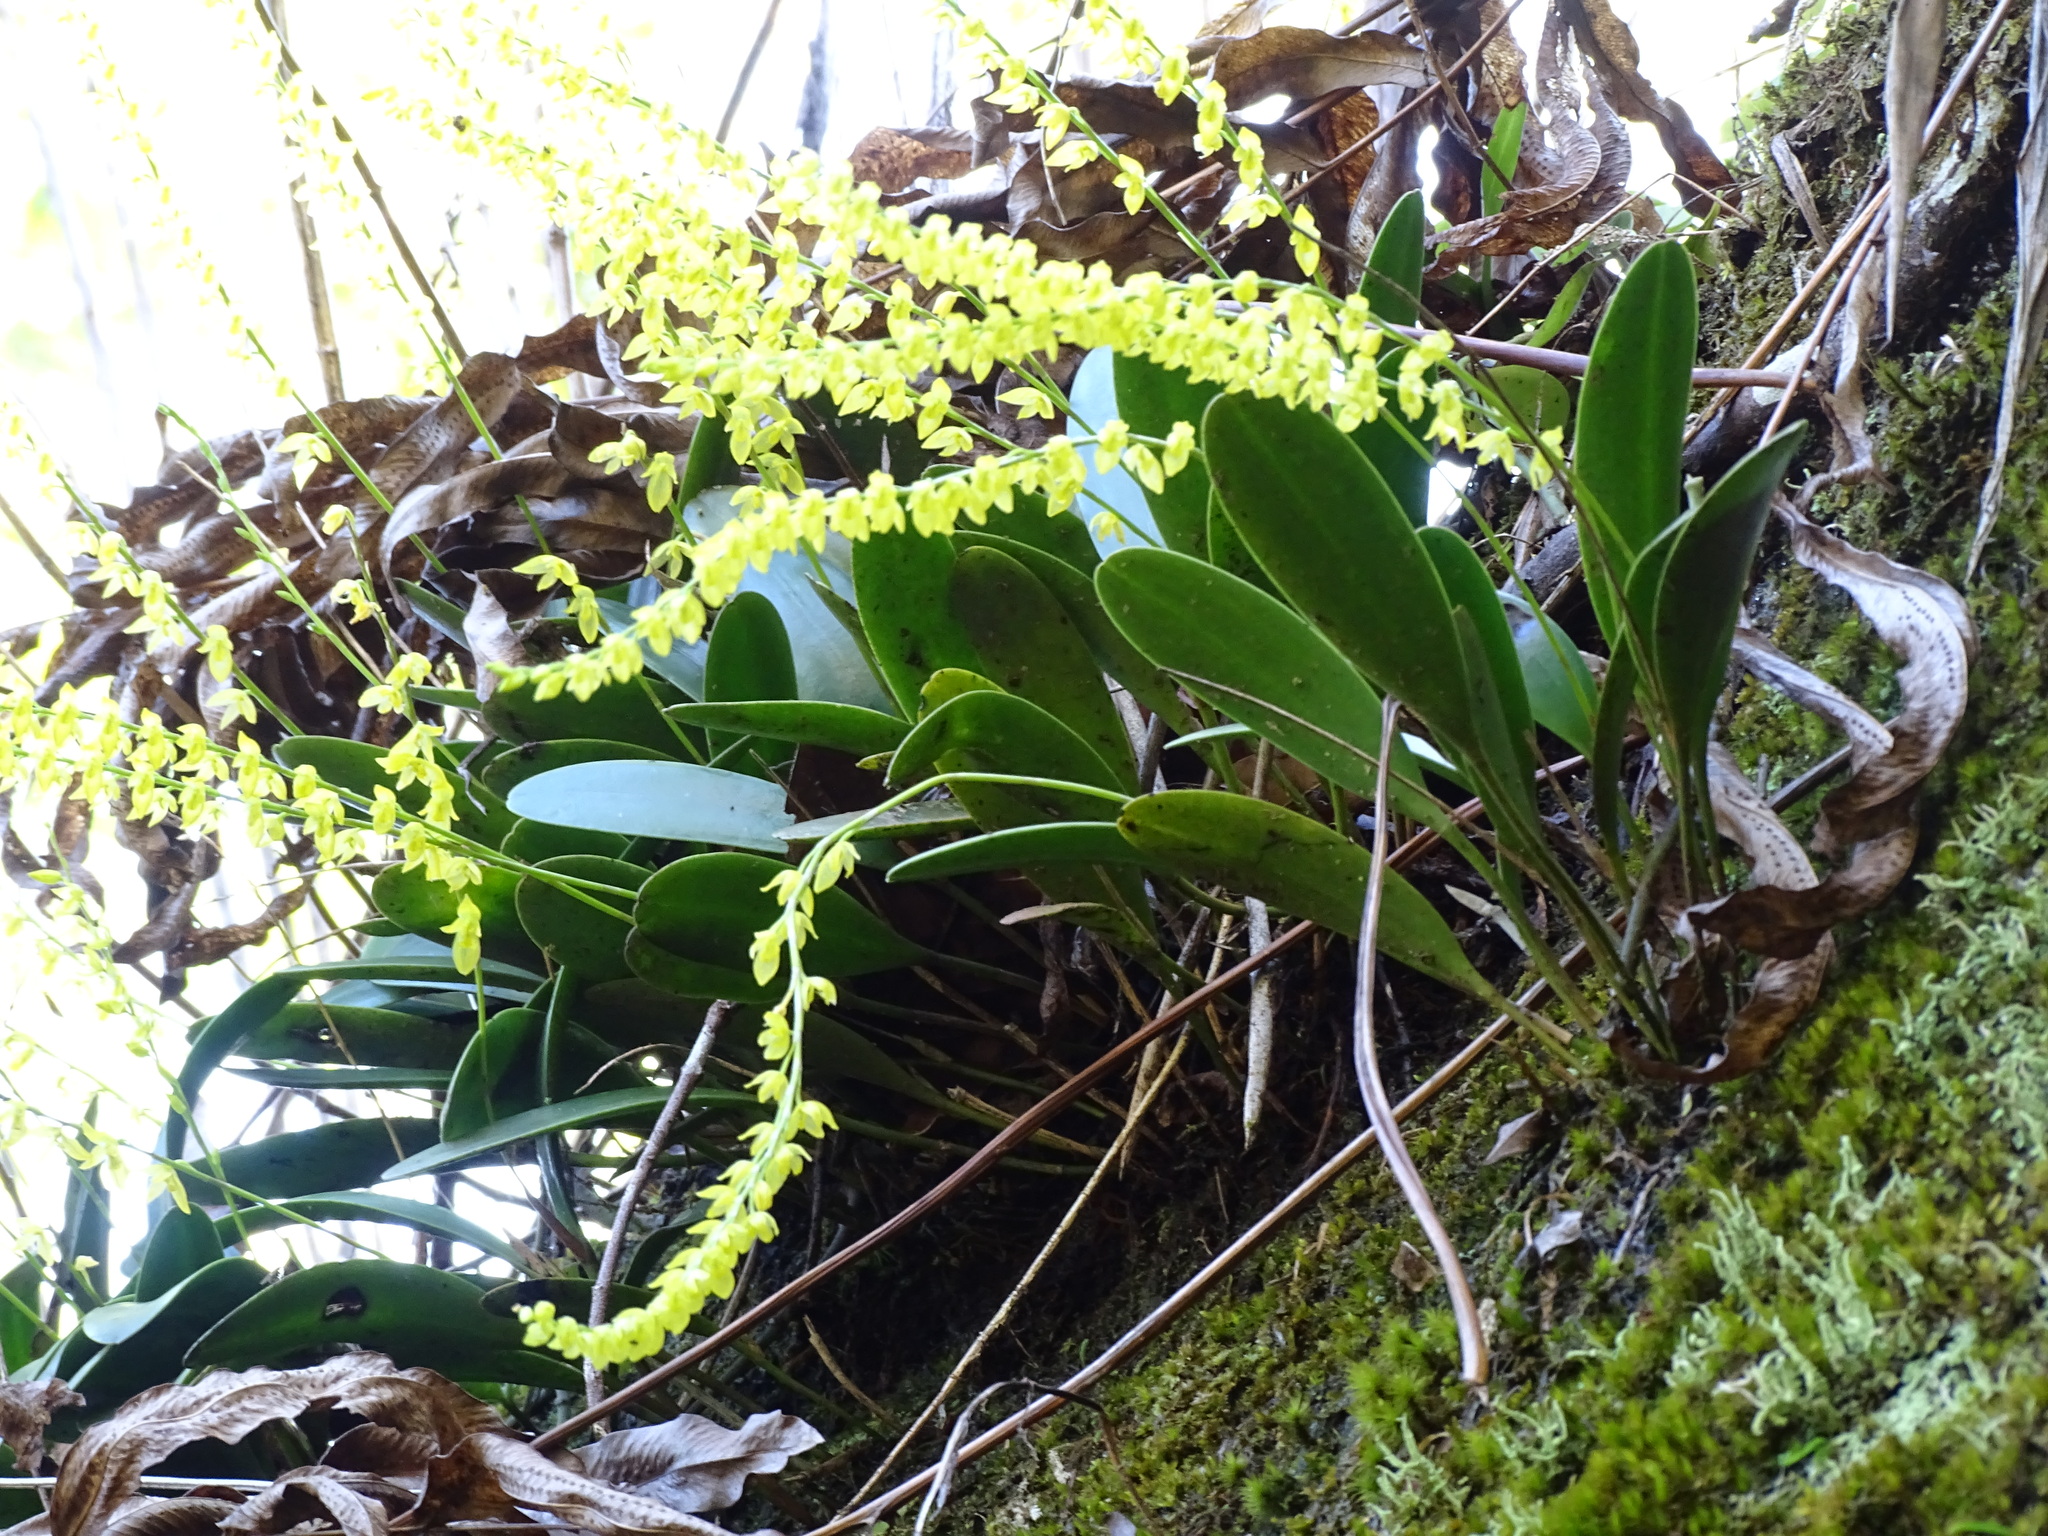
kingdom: Plantae
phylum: Tracheophyta
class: Liliopsida
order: Asparagales
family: Orchidaceae
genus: Pleurothallis
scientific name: Pleurothallis quadrifida
